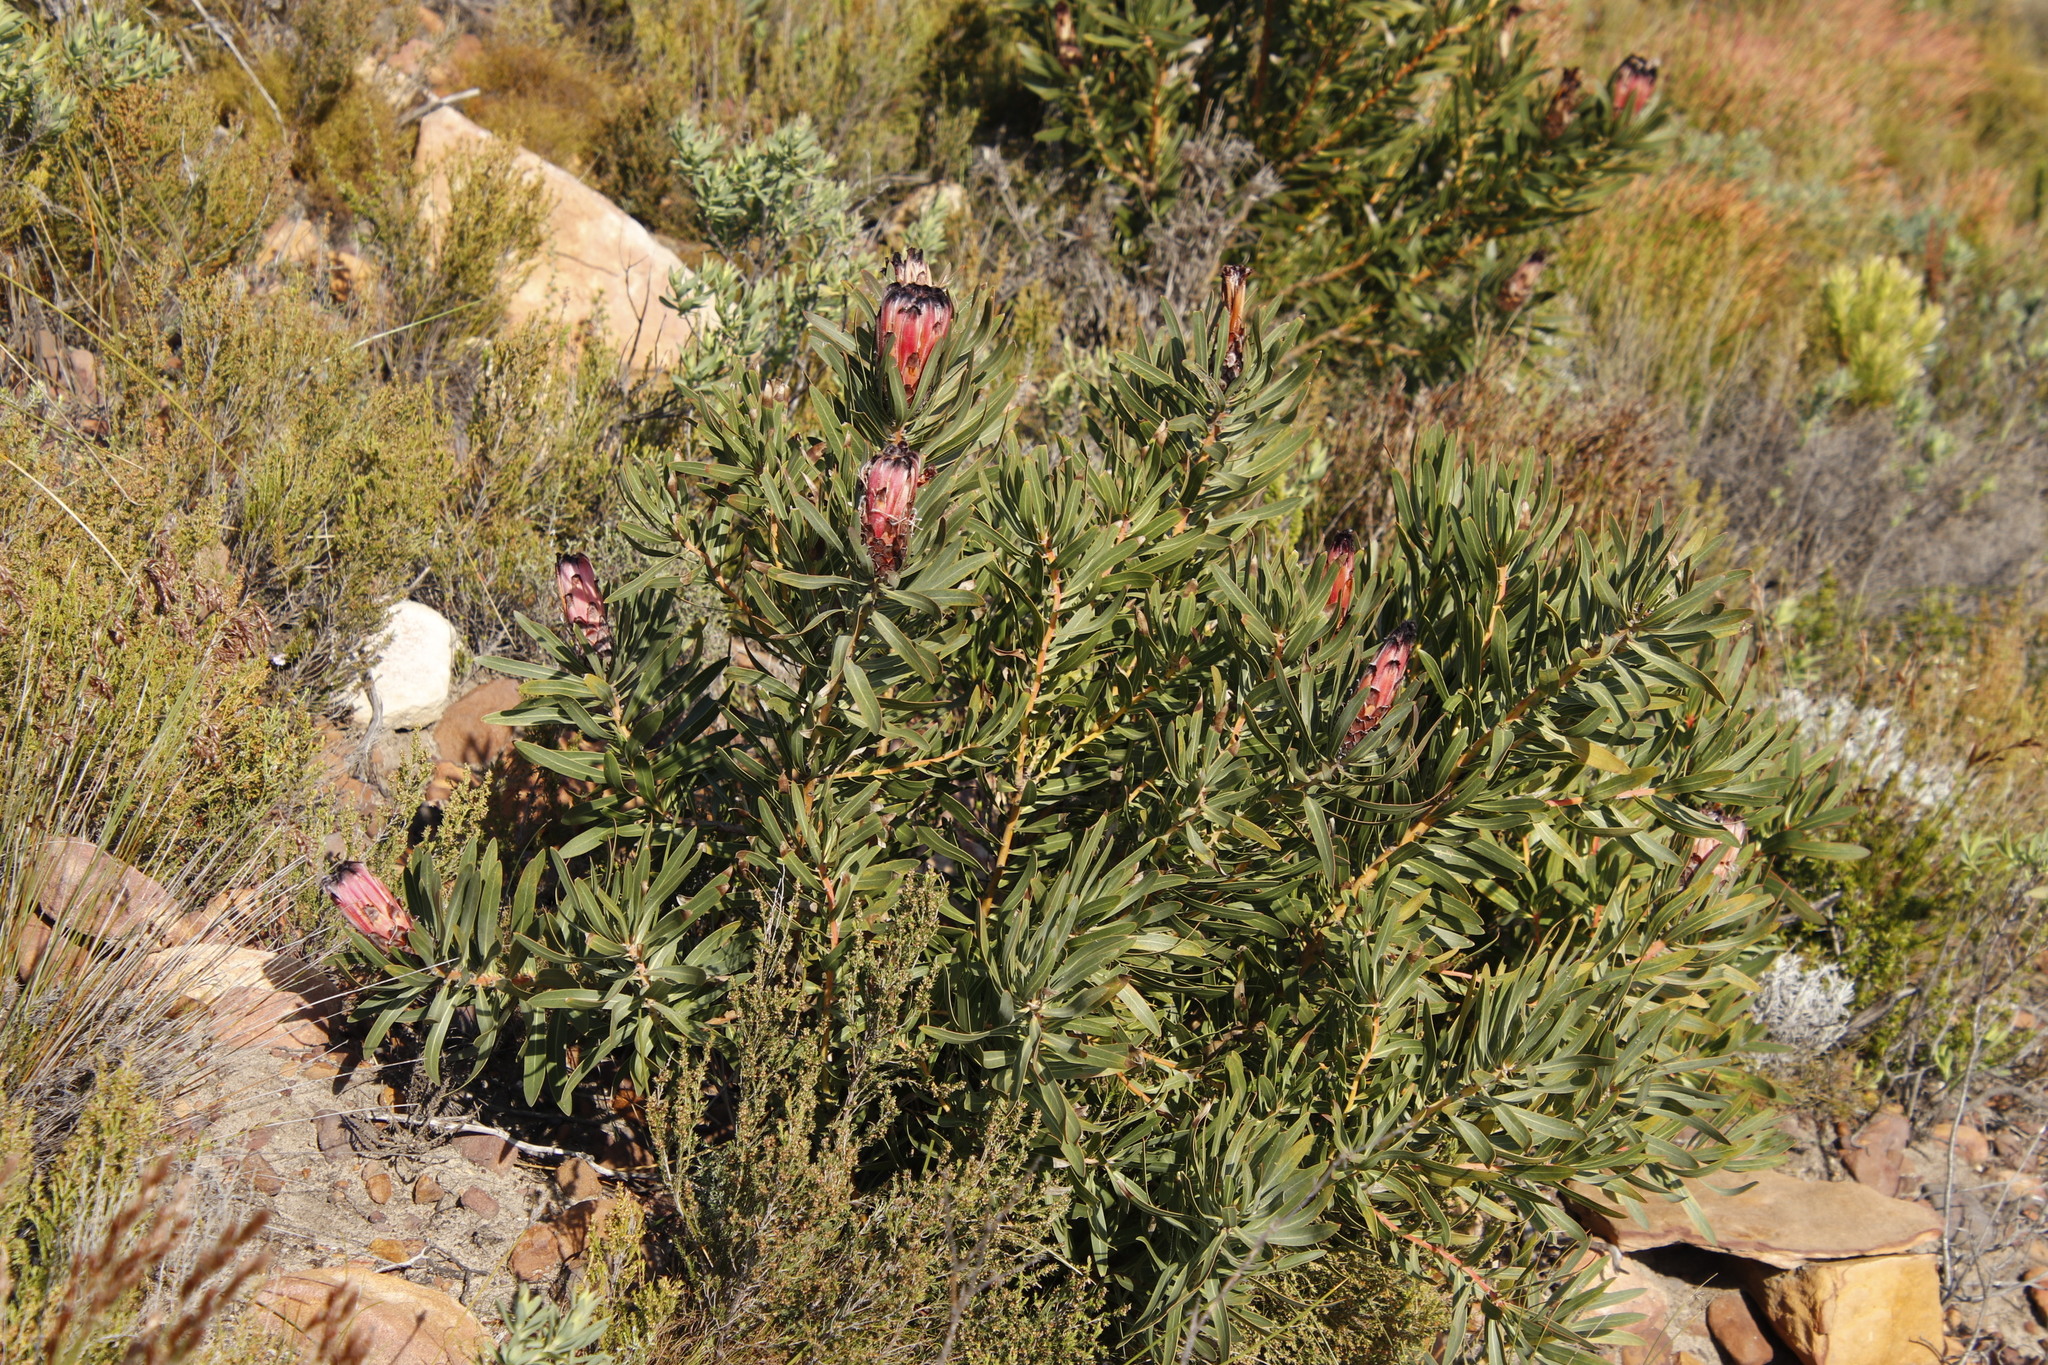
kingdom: Plantae
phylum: Tracheophyta
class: Magnoliopsida
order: Proteales
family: Proteaceae
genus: Protea
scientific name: Protea
